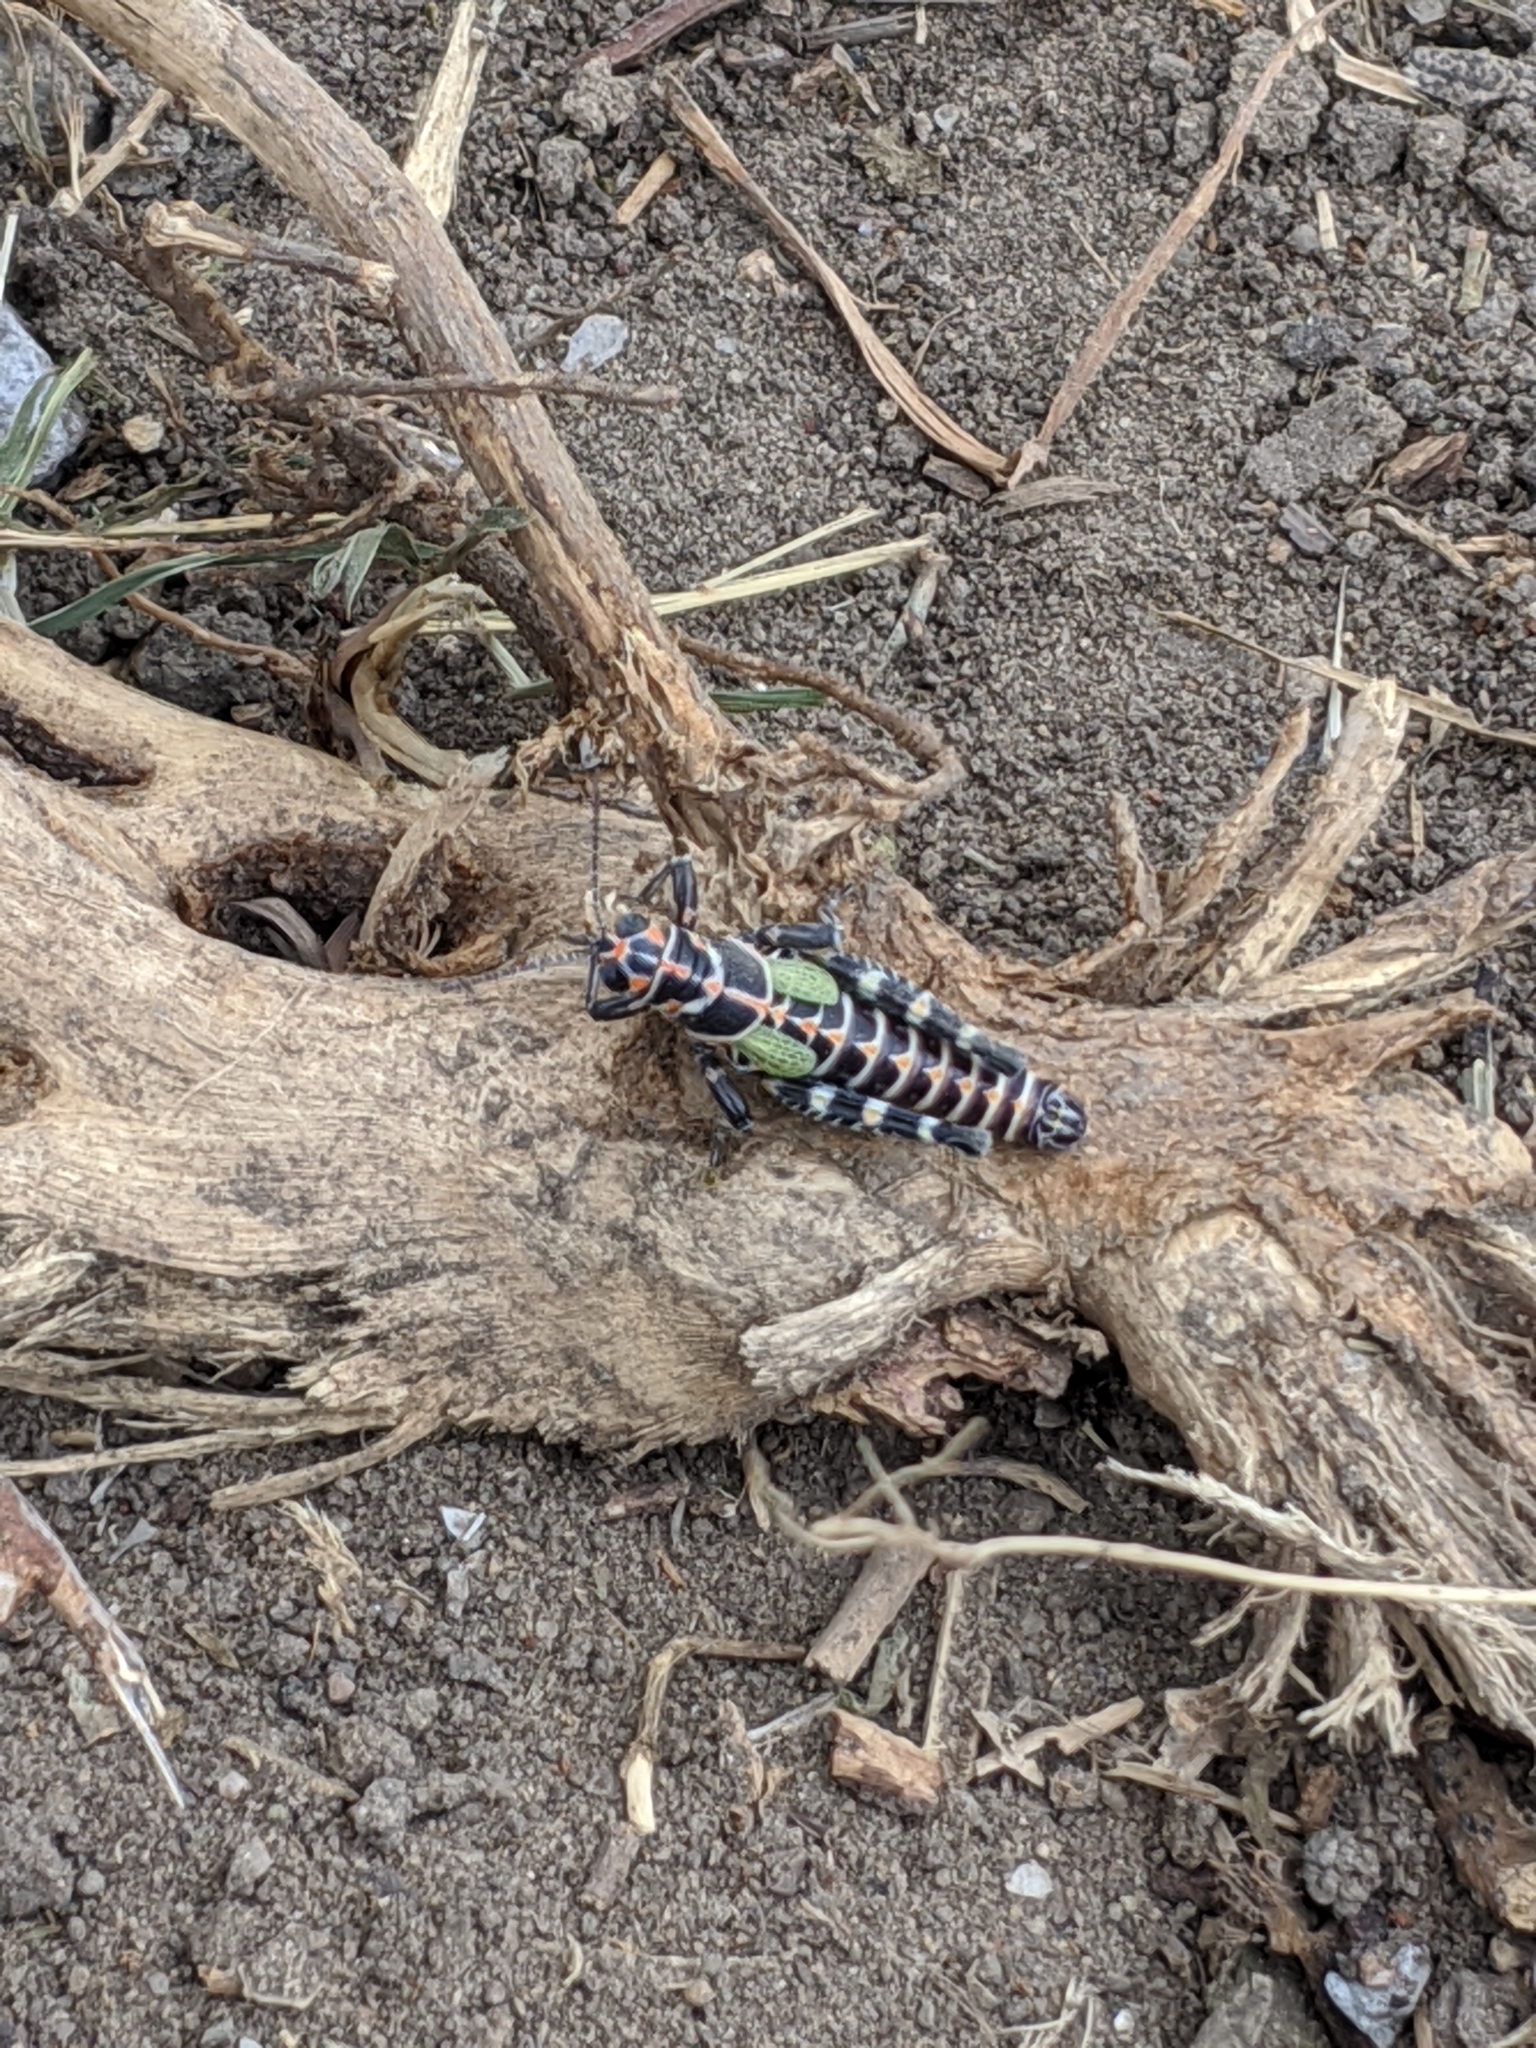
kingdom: Animalia
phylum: Arthropoda
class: Insecta
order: Orthoptera
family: Acrididae
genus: Dactylotum
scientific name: Dactylotum bicolor
